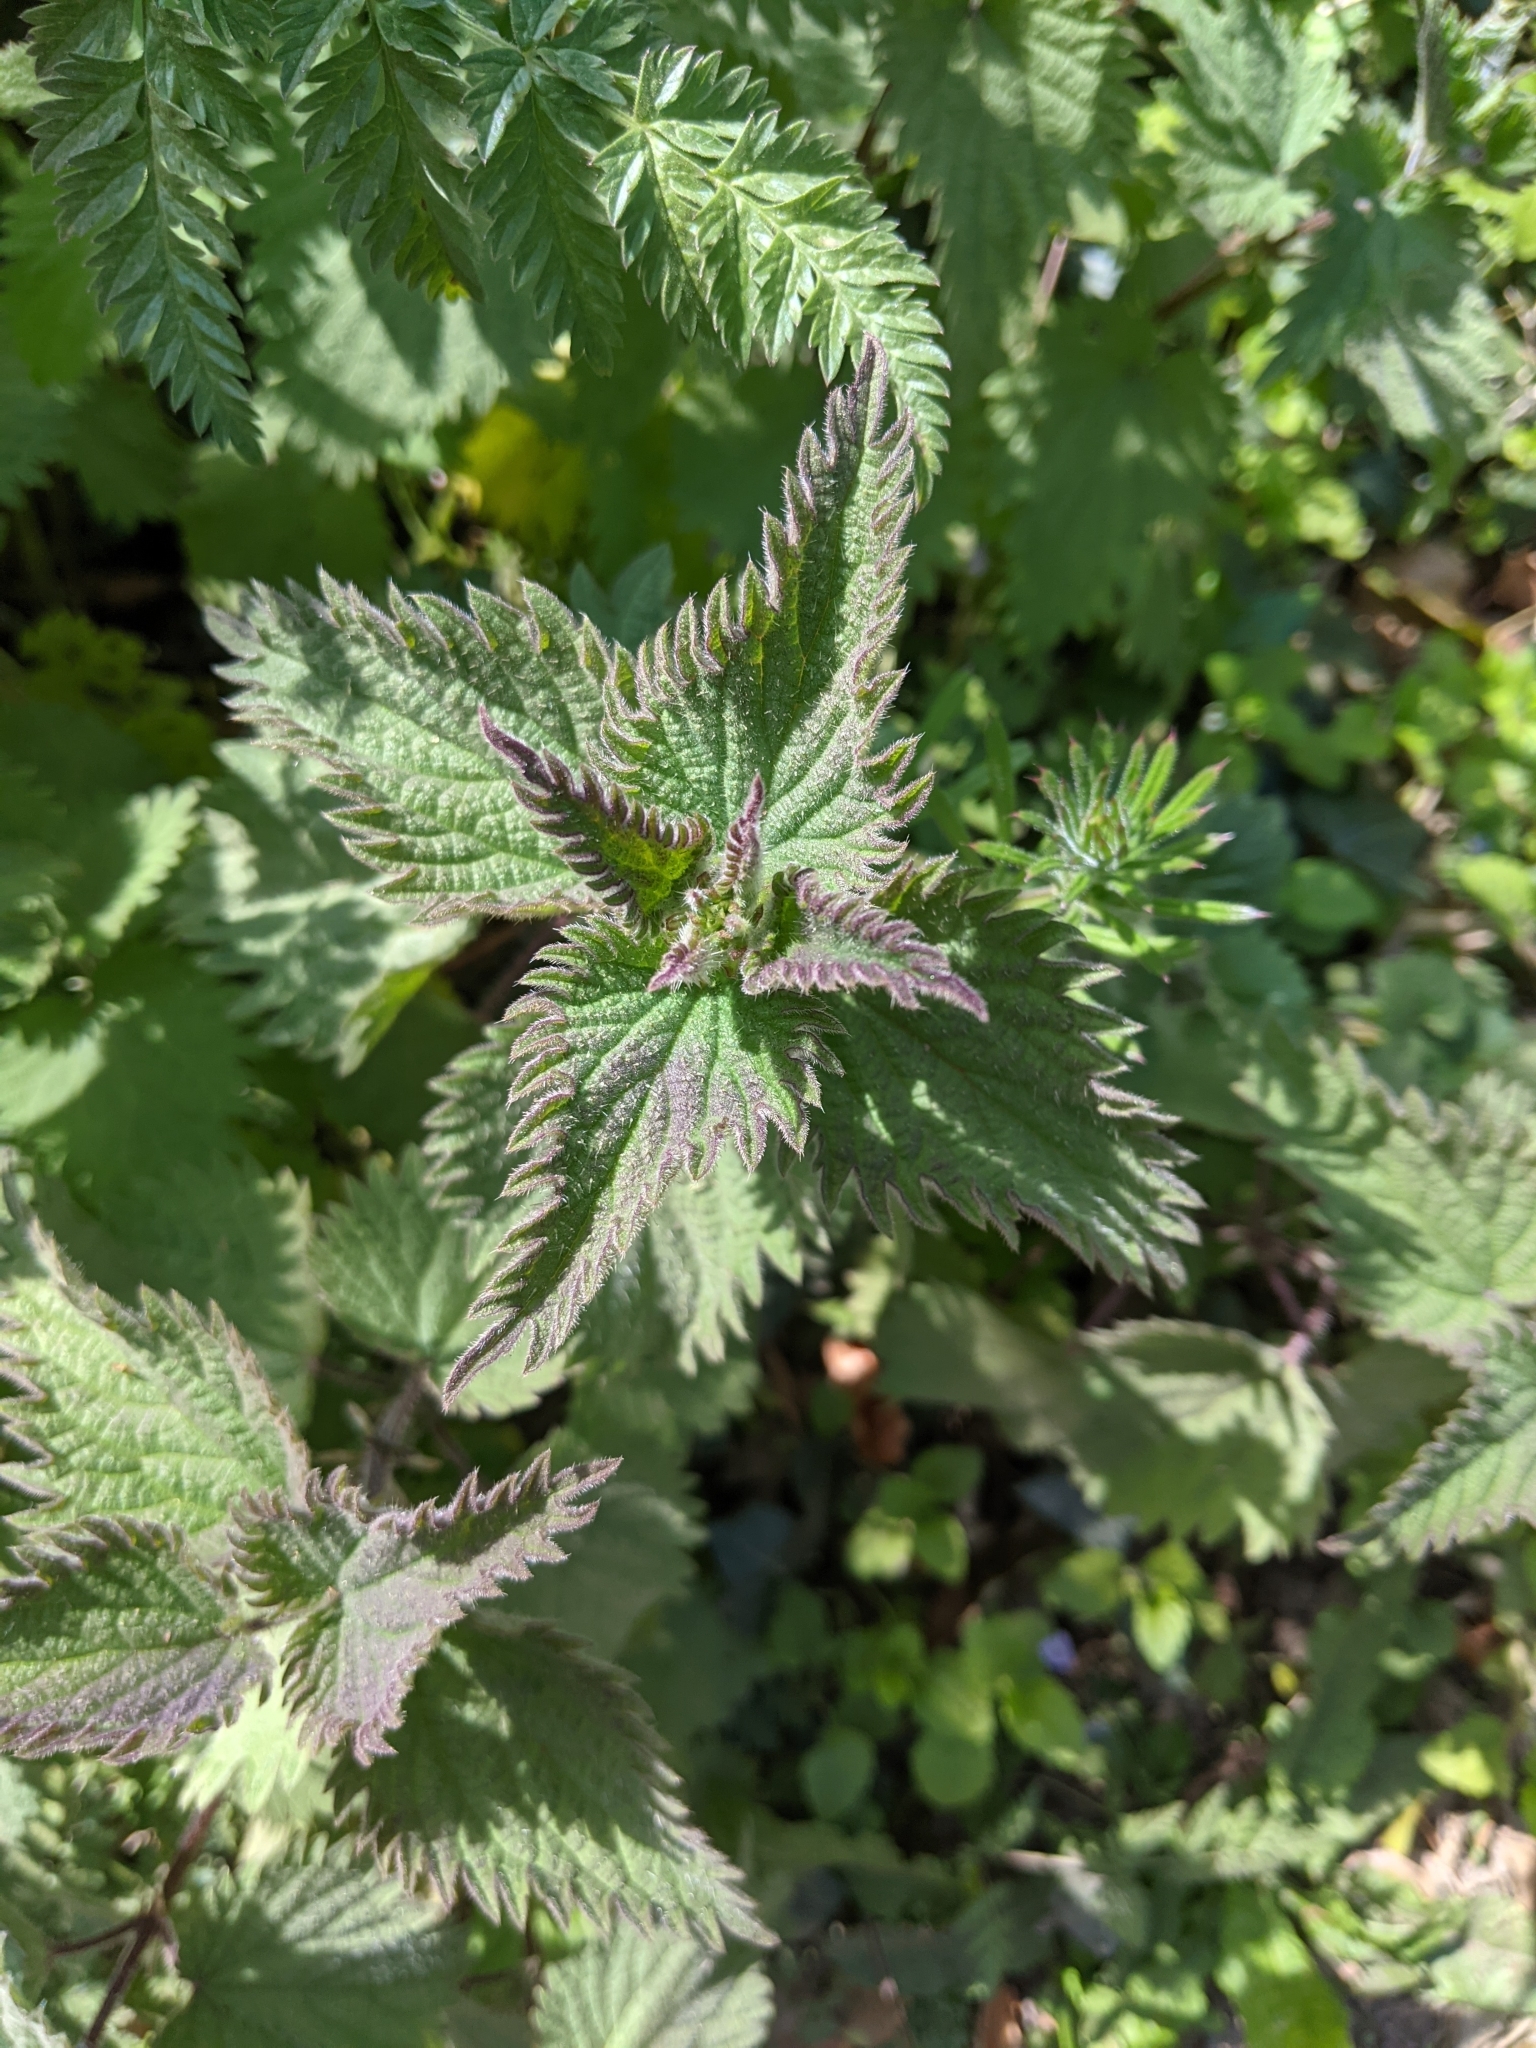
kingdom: Plantae
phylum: Tracheophyta
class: Magnoliopsida
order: Rosales
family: Urticaceae
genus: Urtica
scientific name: Urtica dioica
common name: Common nettle
